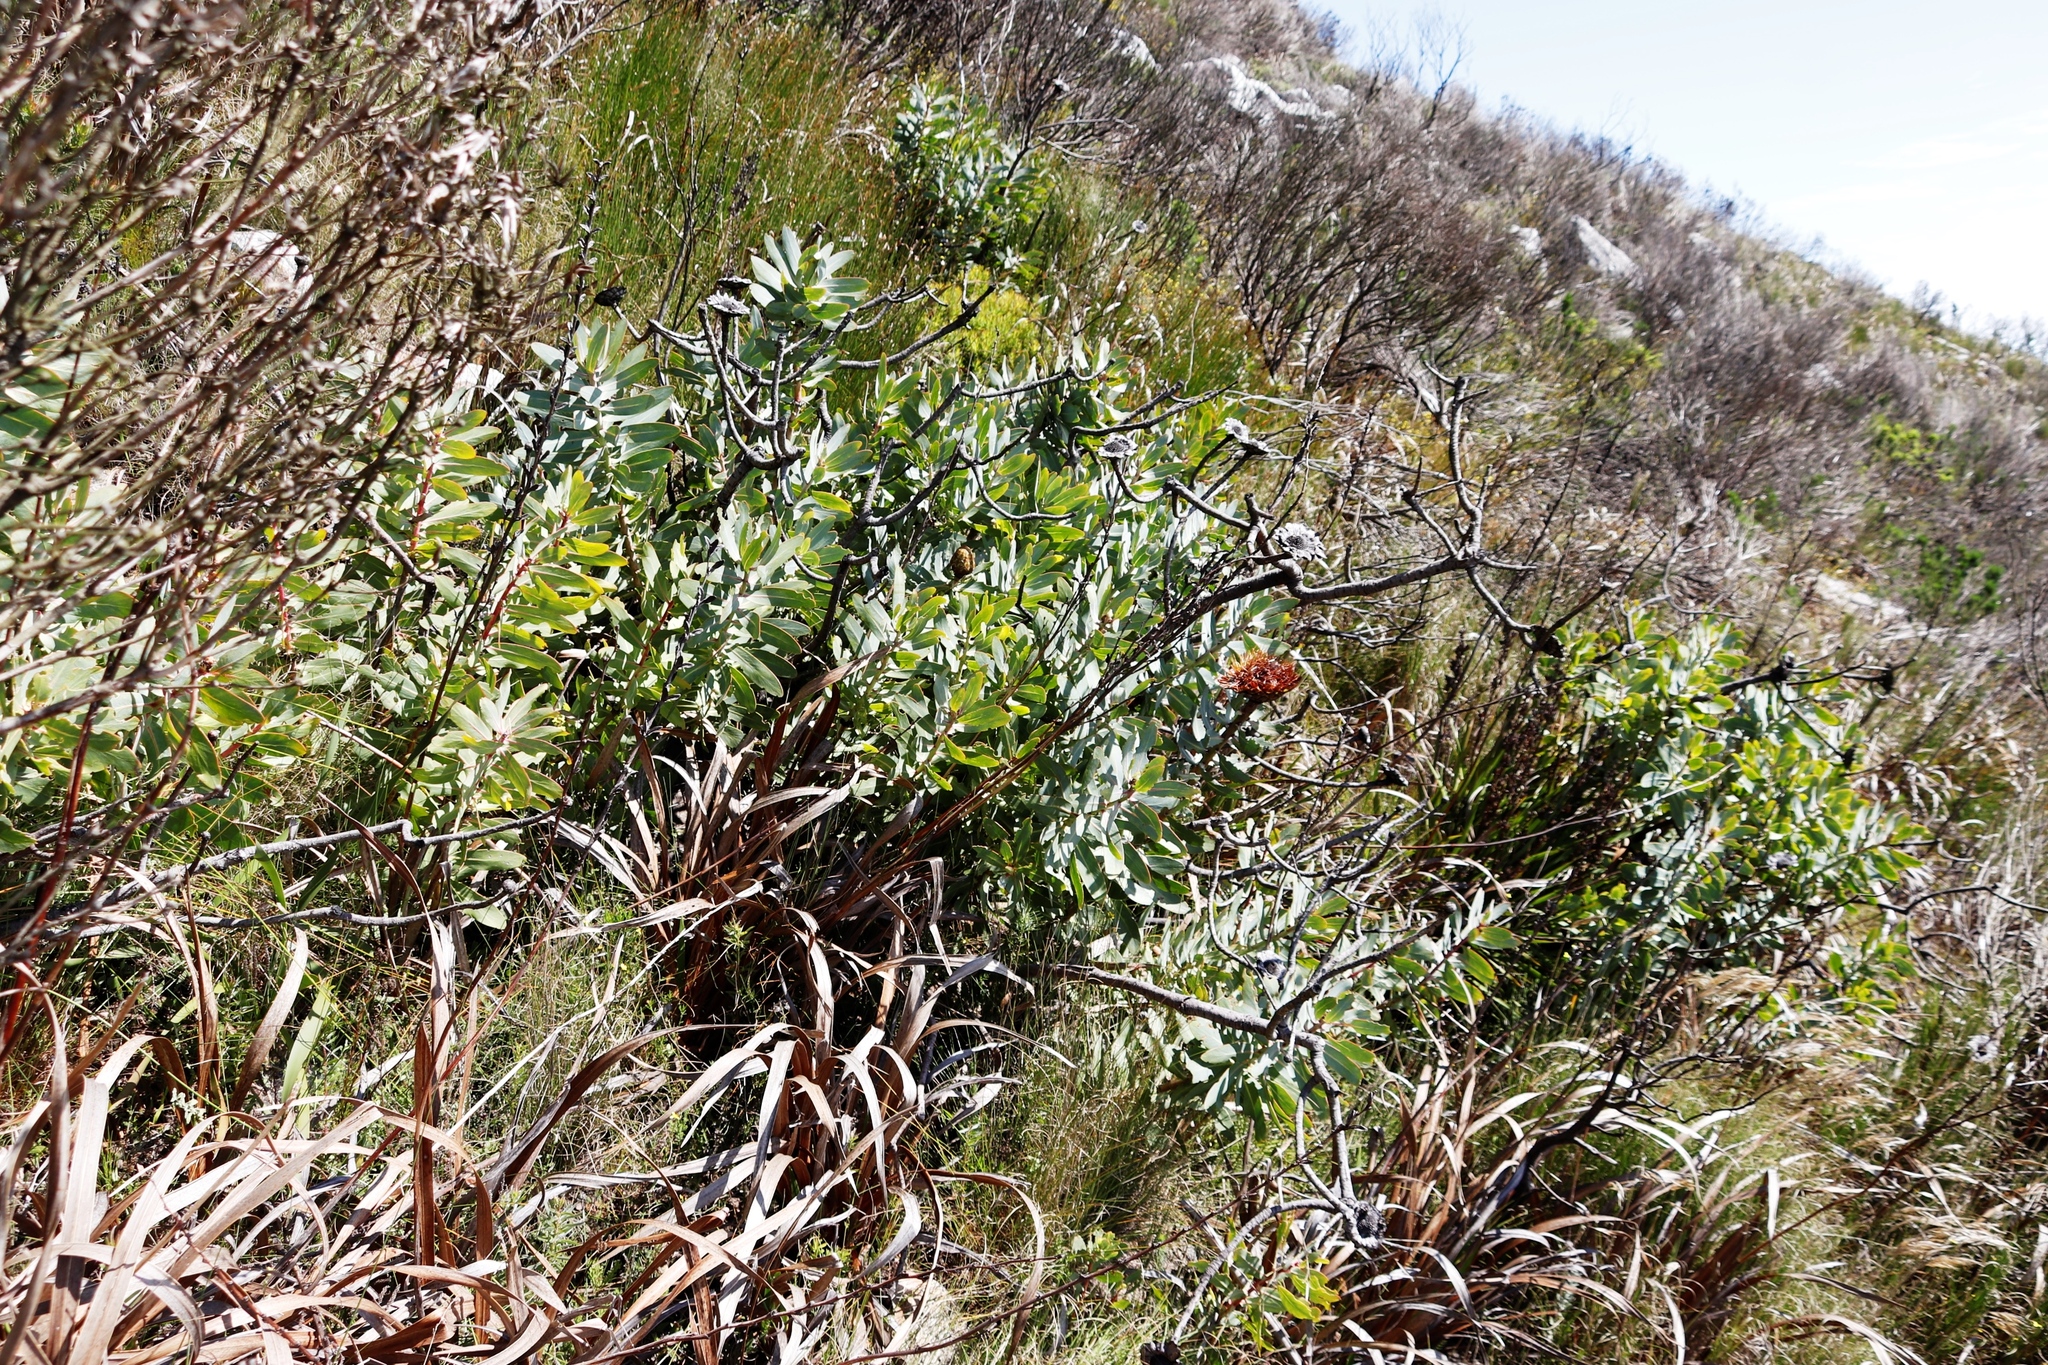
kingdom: Plantae
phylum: Tracheophyta
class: Magnoliopsida
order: Proteales
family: Proteaceae
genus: Protea
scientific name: Protea nitida
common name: Tree protea
